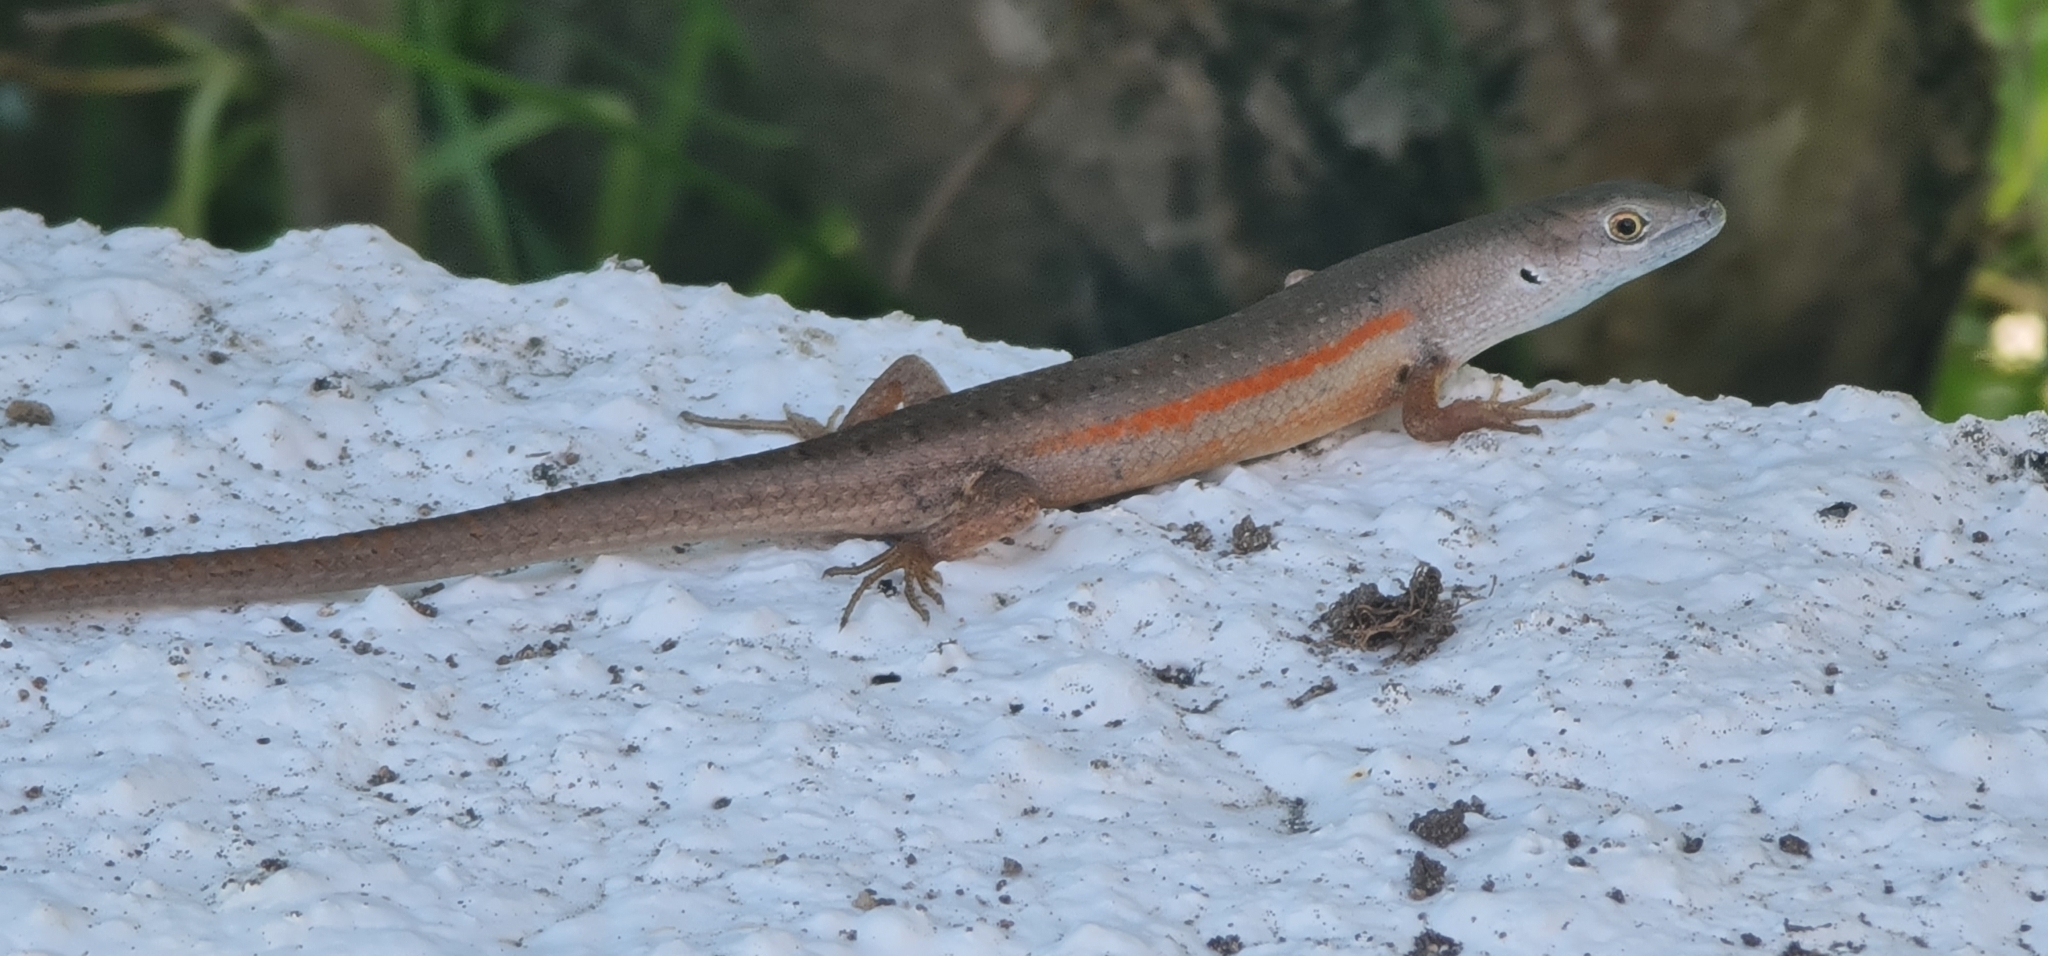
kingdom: Animalia
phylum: Chordata
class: Squamata
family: Scincidae
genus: Carlia
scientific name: Carlia decora
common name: Elegant rainbow skink
